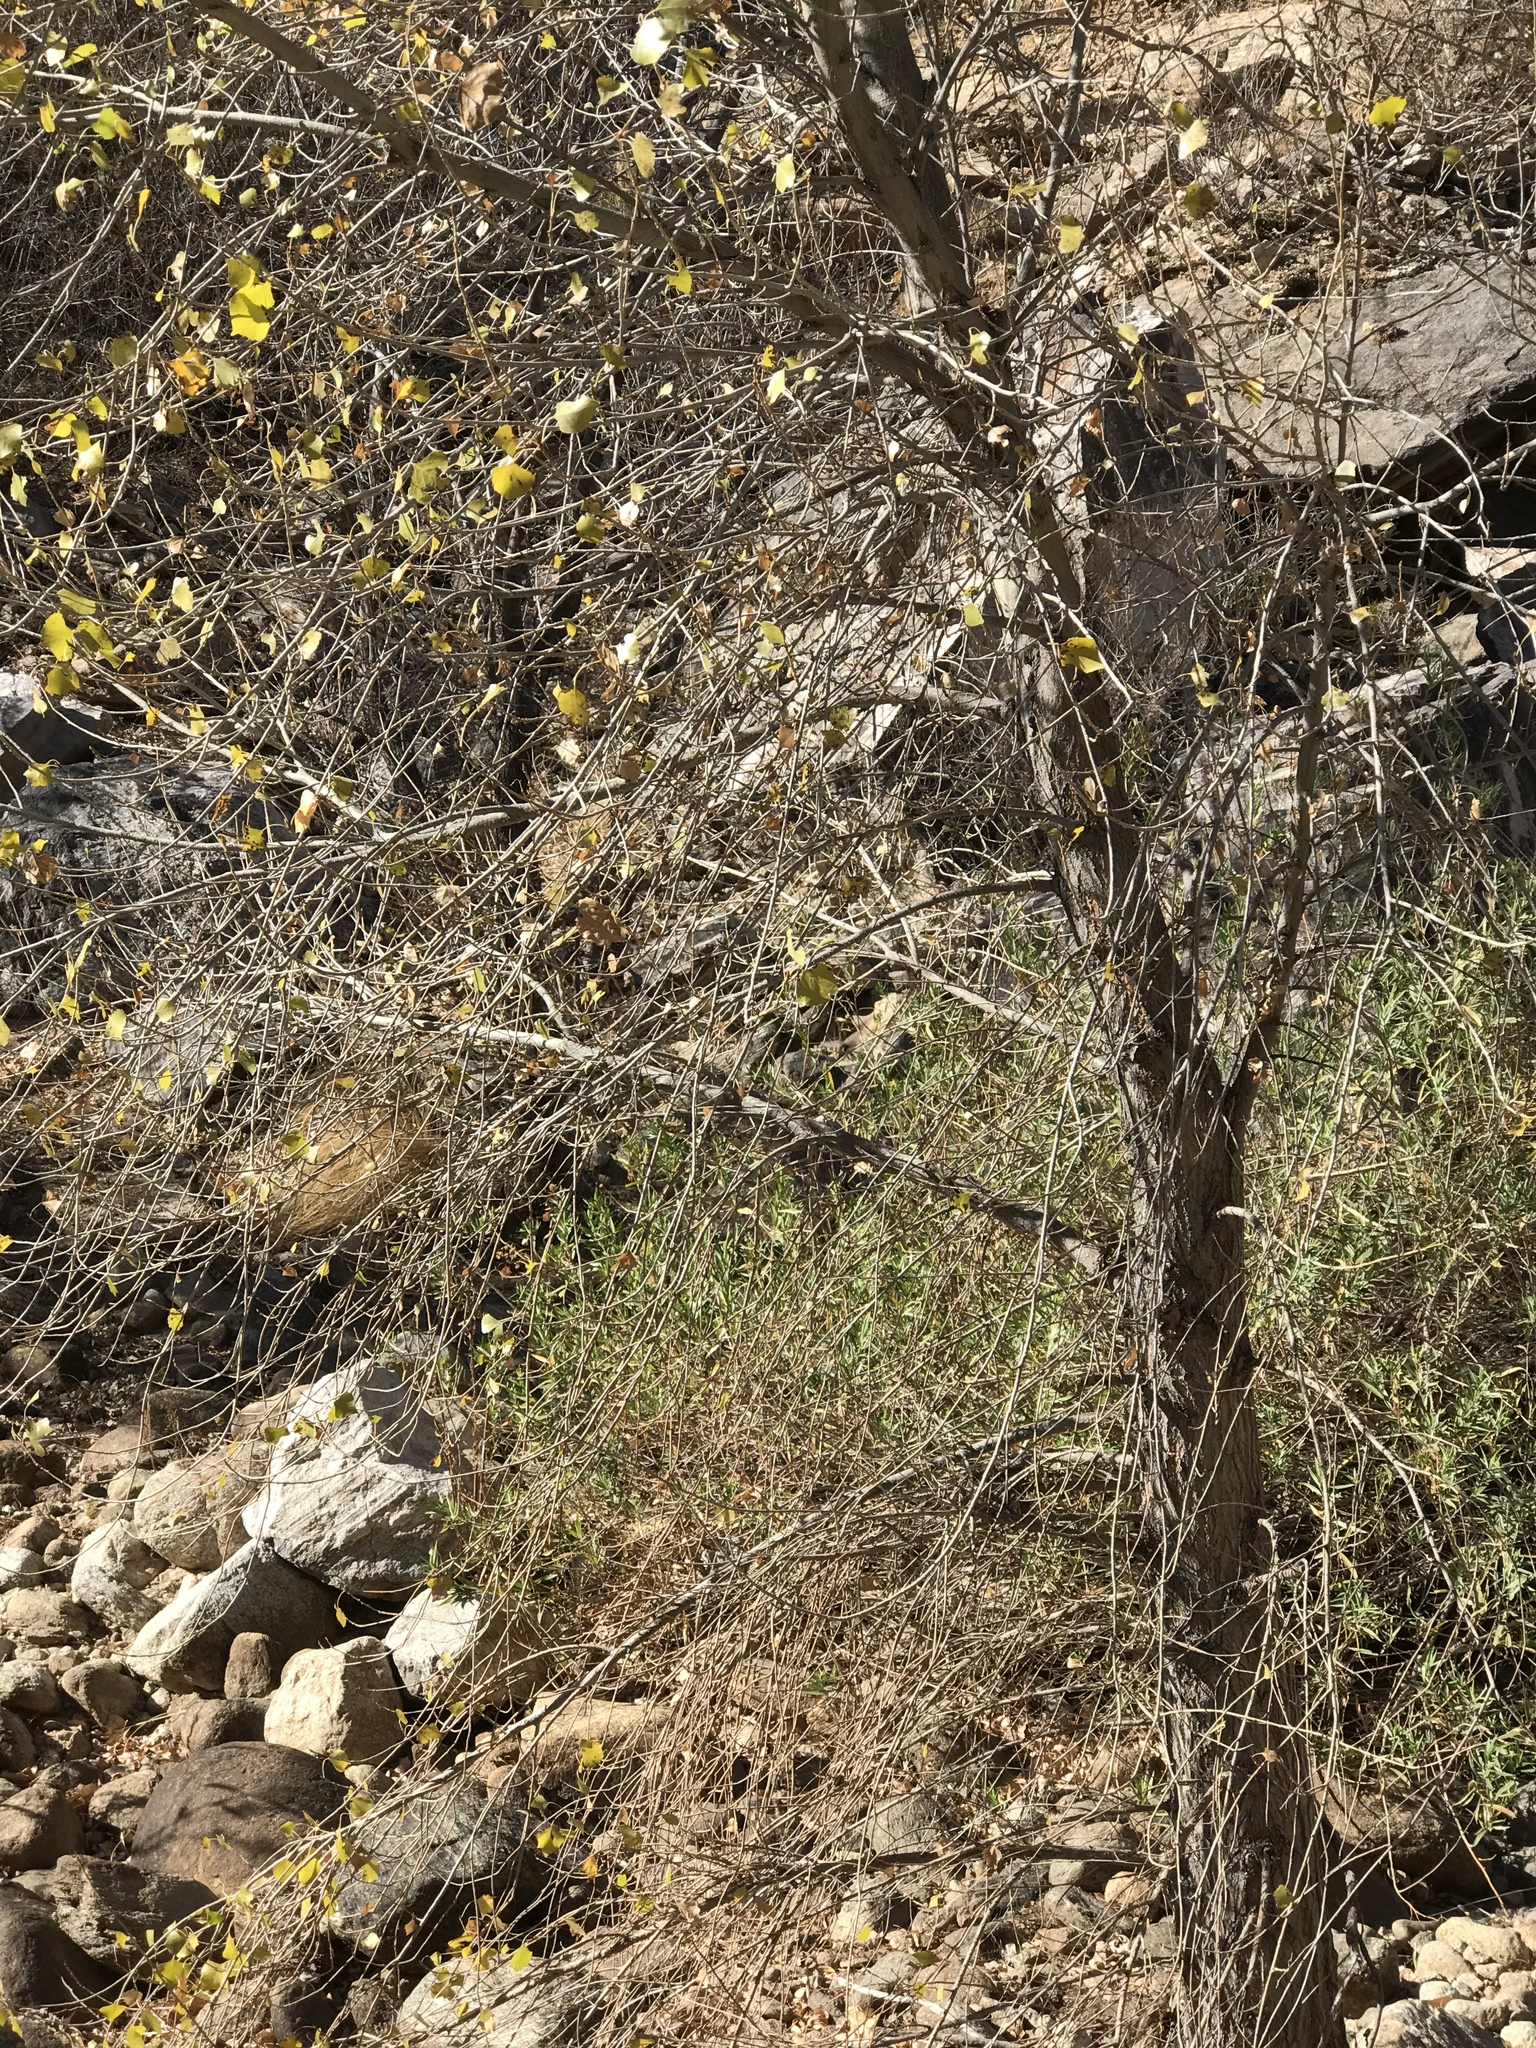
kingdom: Plantae
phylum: Tracheophyta
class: Magnoliopsida
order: Malpighiales
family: Salicaceae
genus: Populus
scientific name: Populus fremontii
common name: Fremont's cottonwood
